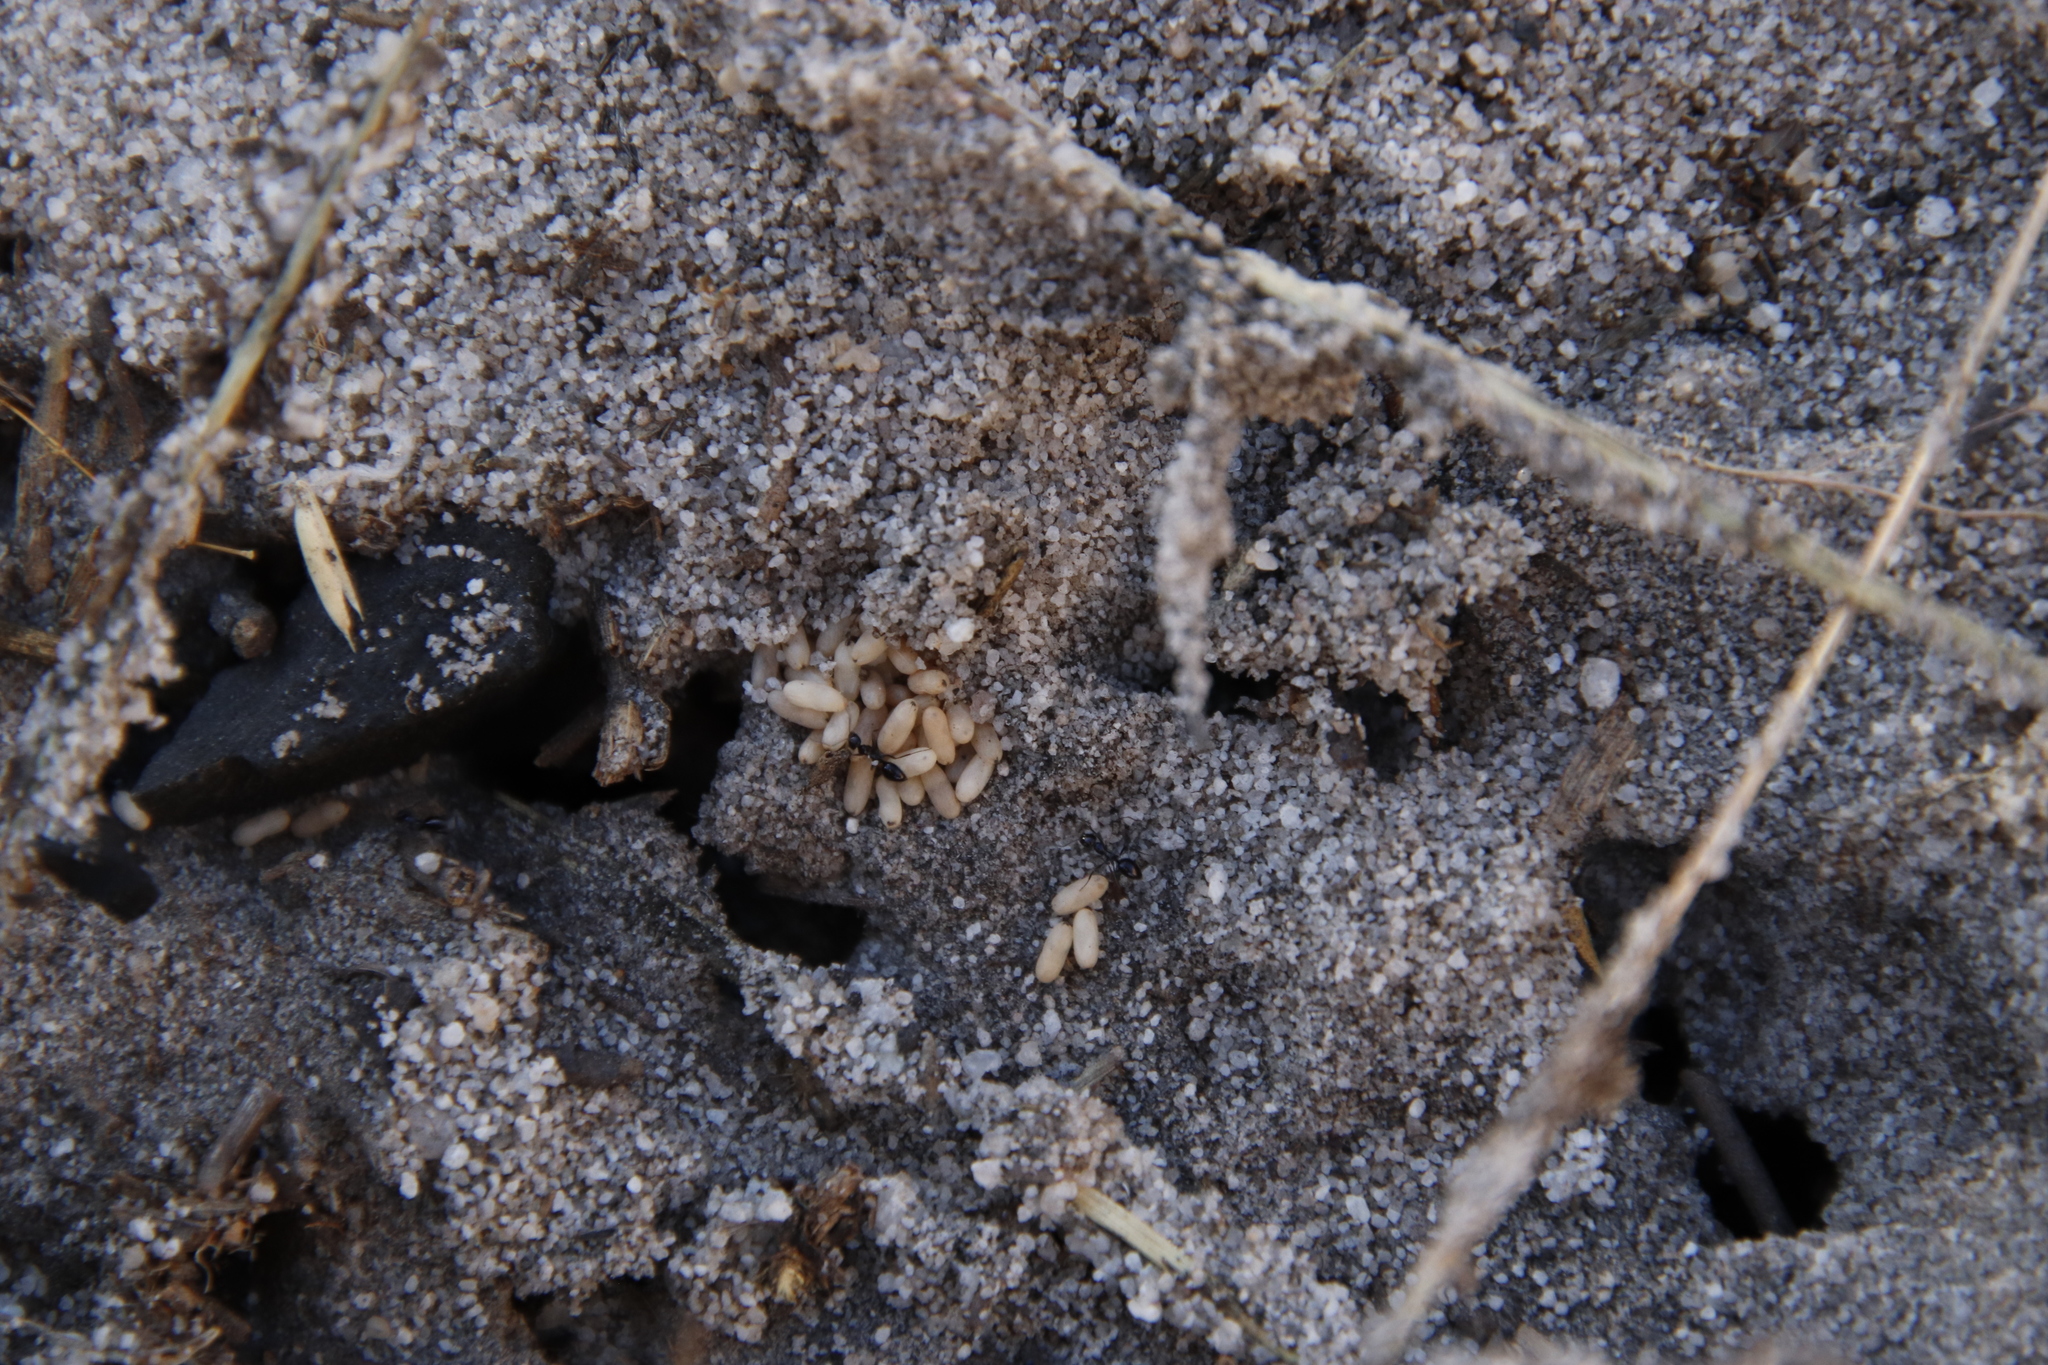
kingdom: Animalia
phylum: Arthropoda
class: Insecta
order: Hymenoptera
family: Formicidae
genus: Anoplolepis
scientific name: Anoplolepis steingroeveri
